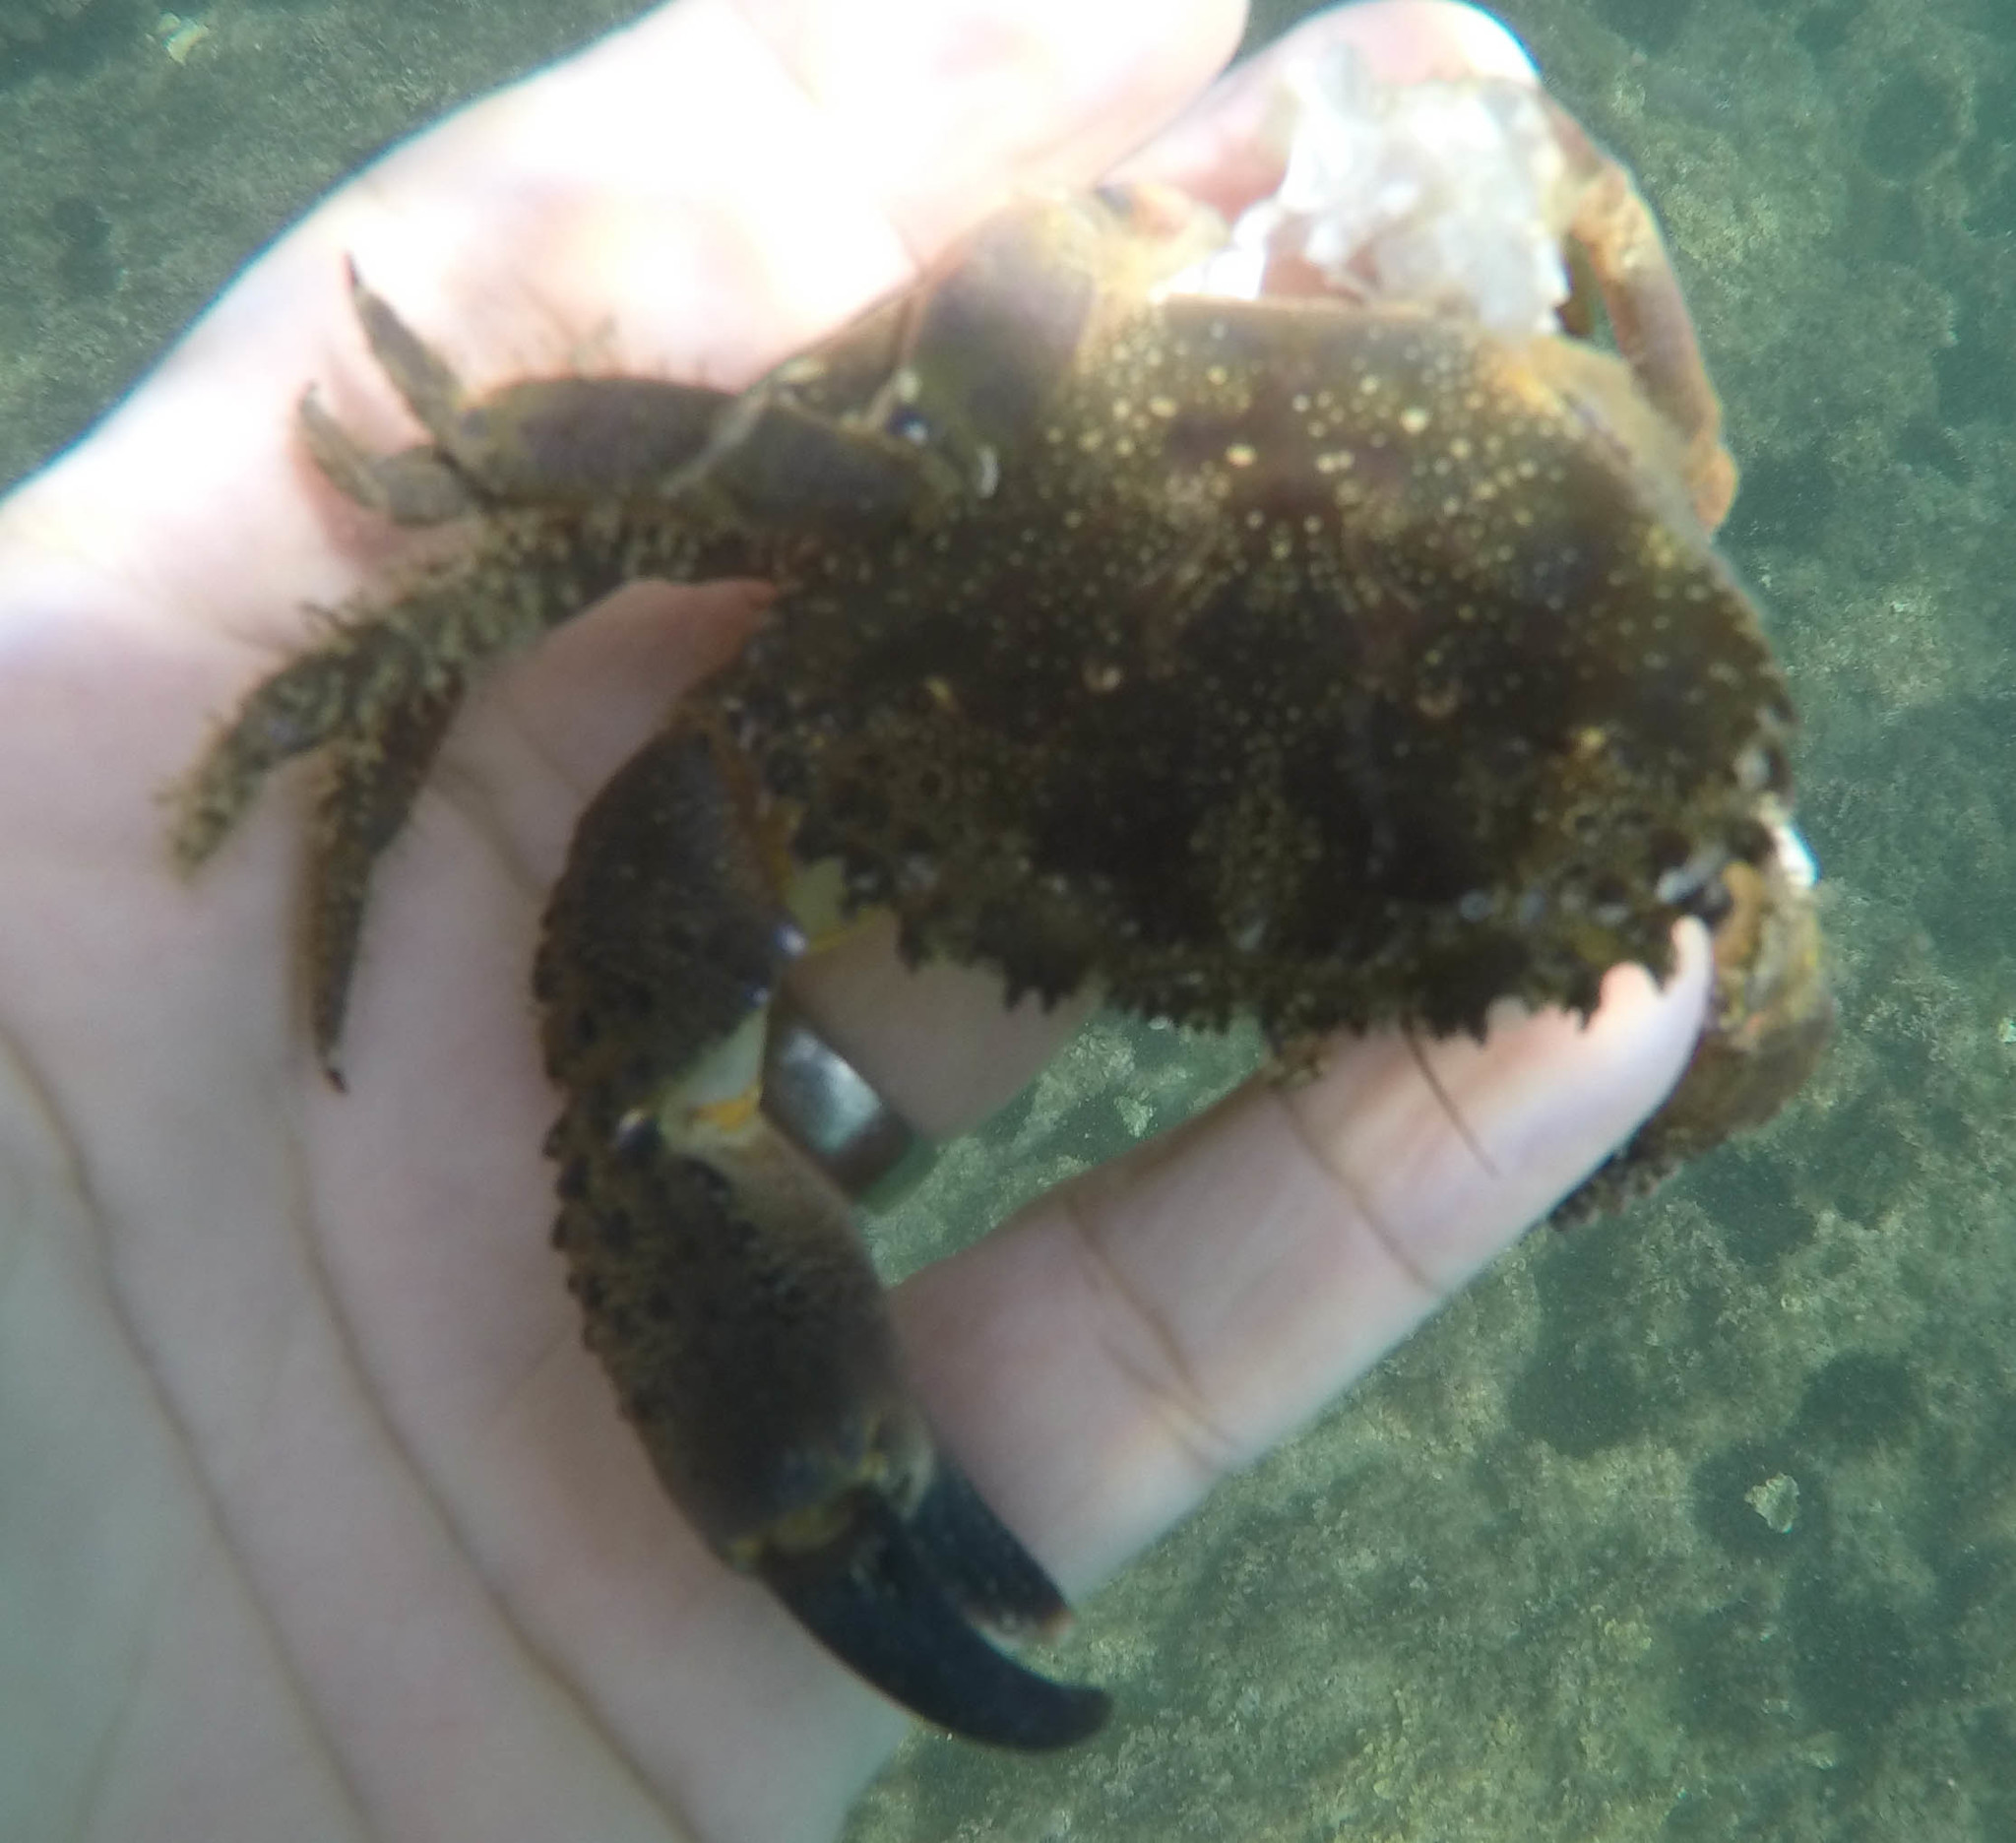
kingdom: Animalia
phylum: Arthropoda
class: Malacostraca
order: Decapoda
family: Eriphiidae
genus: Eriphia
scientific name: Eriphia verrucosa
